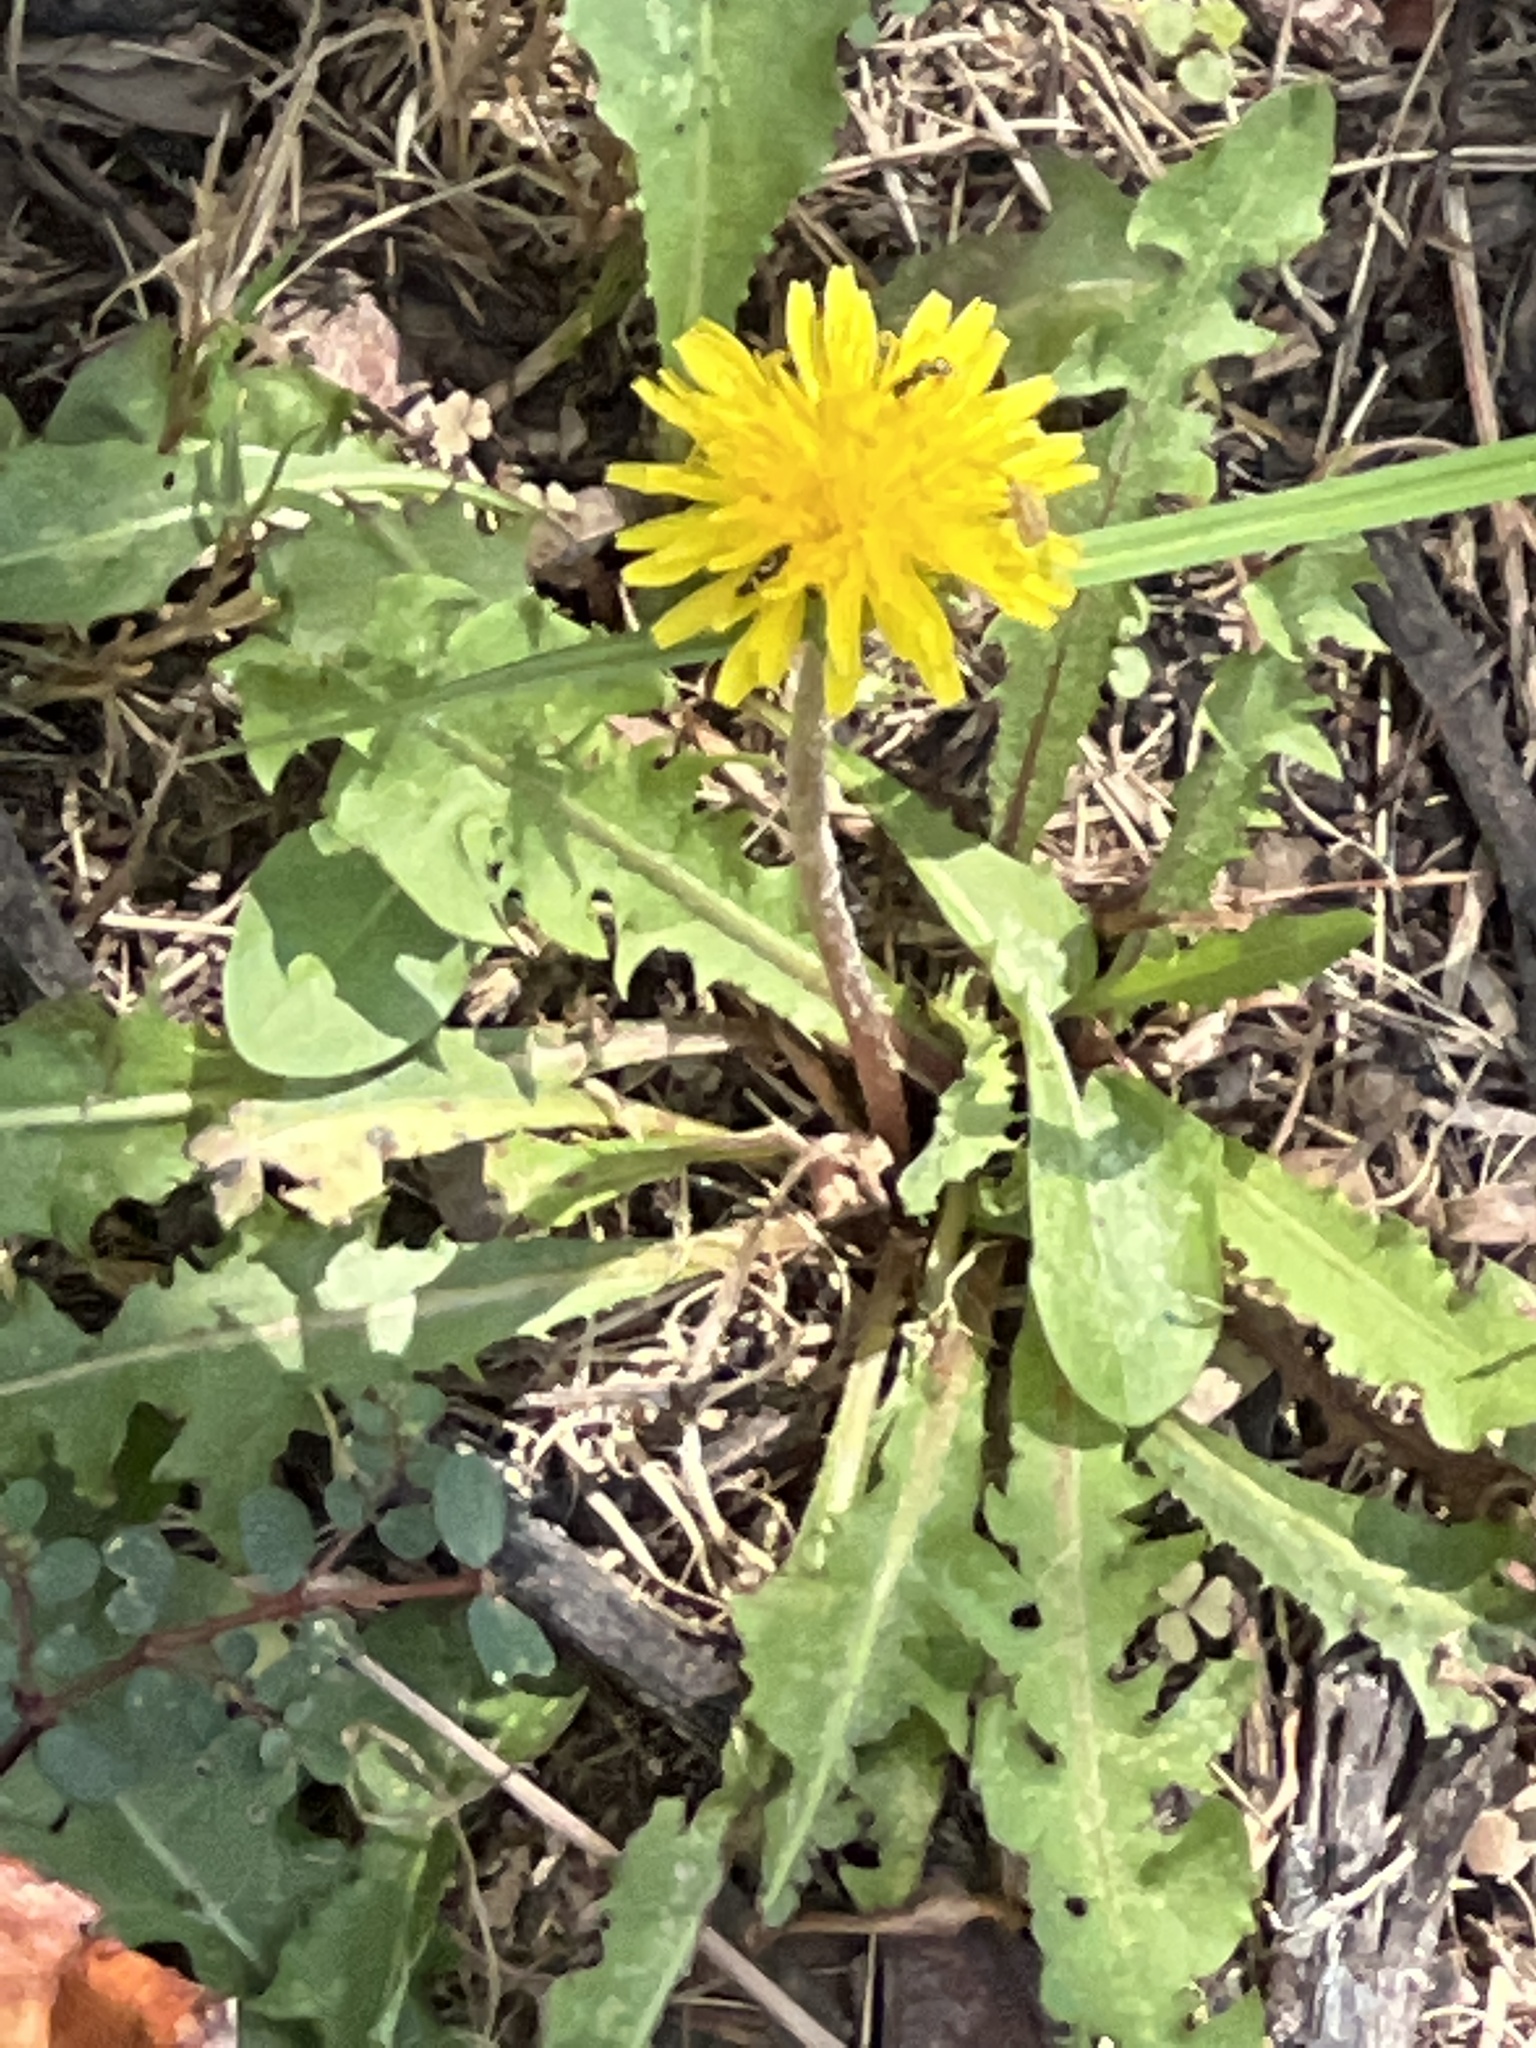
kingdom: Plantae
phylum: Tracheophyta
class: Magnoliopsida
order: Asterales
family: Asteraceae
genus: Taraxacum
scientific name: Taraxacum officinale
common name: Common dandelion
